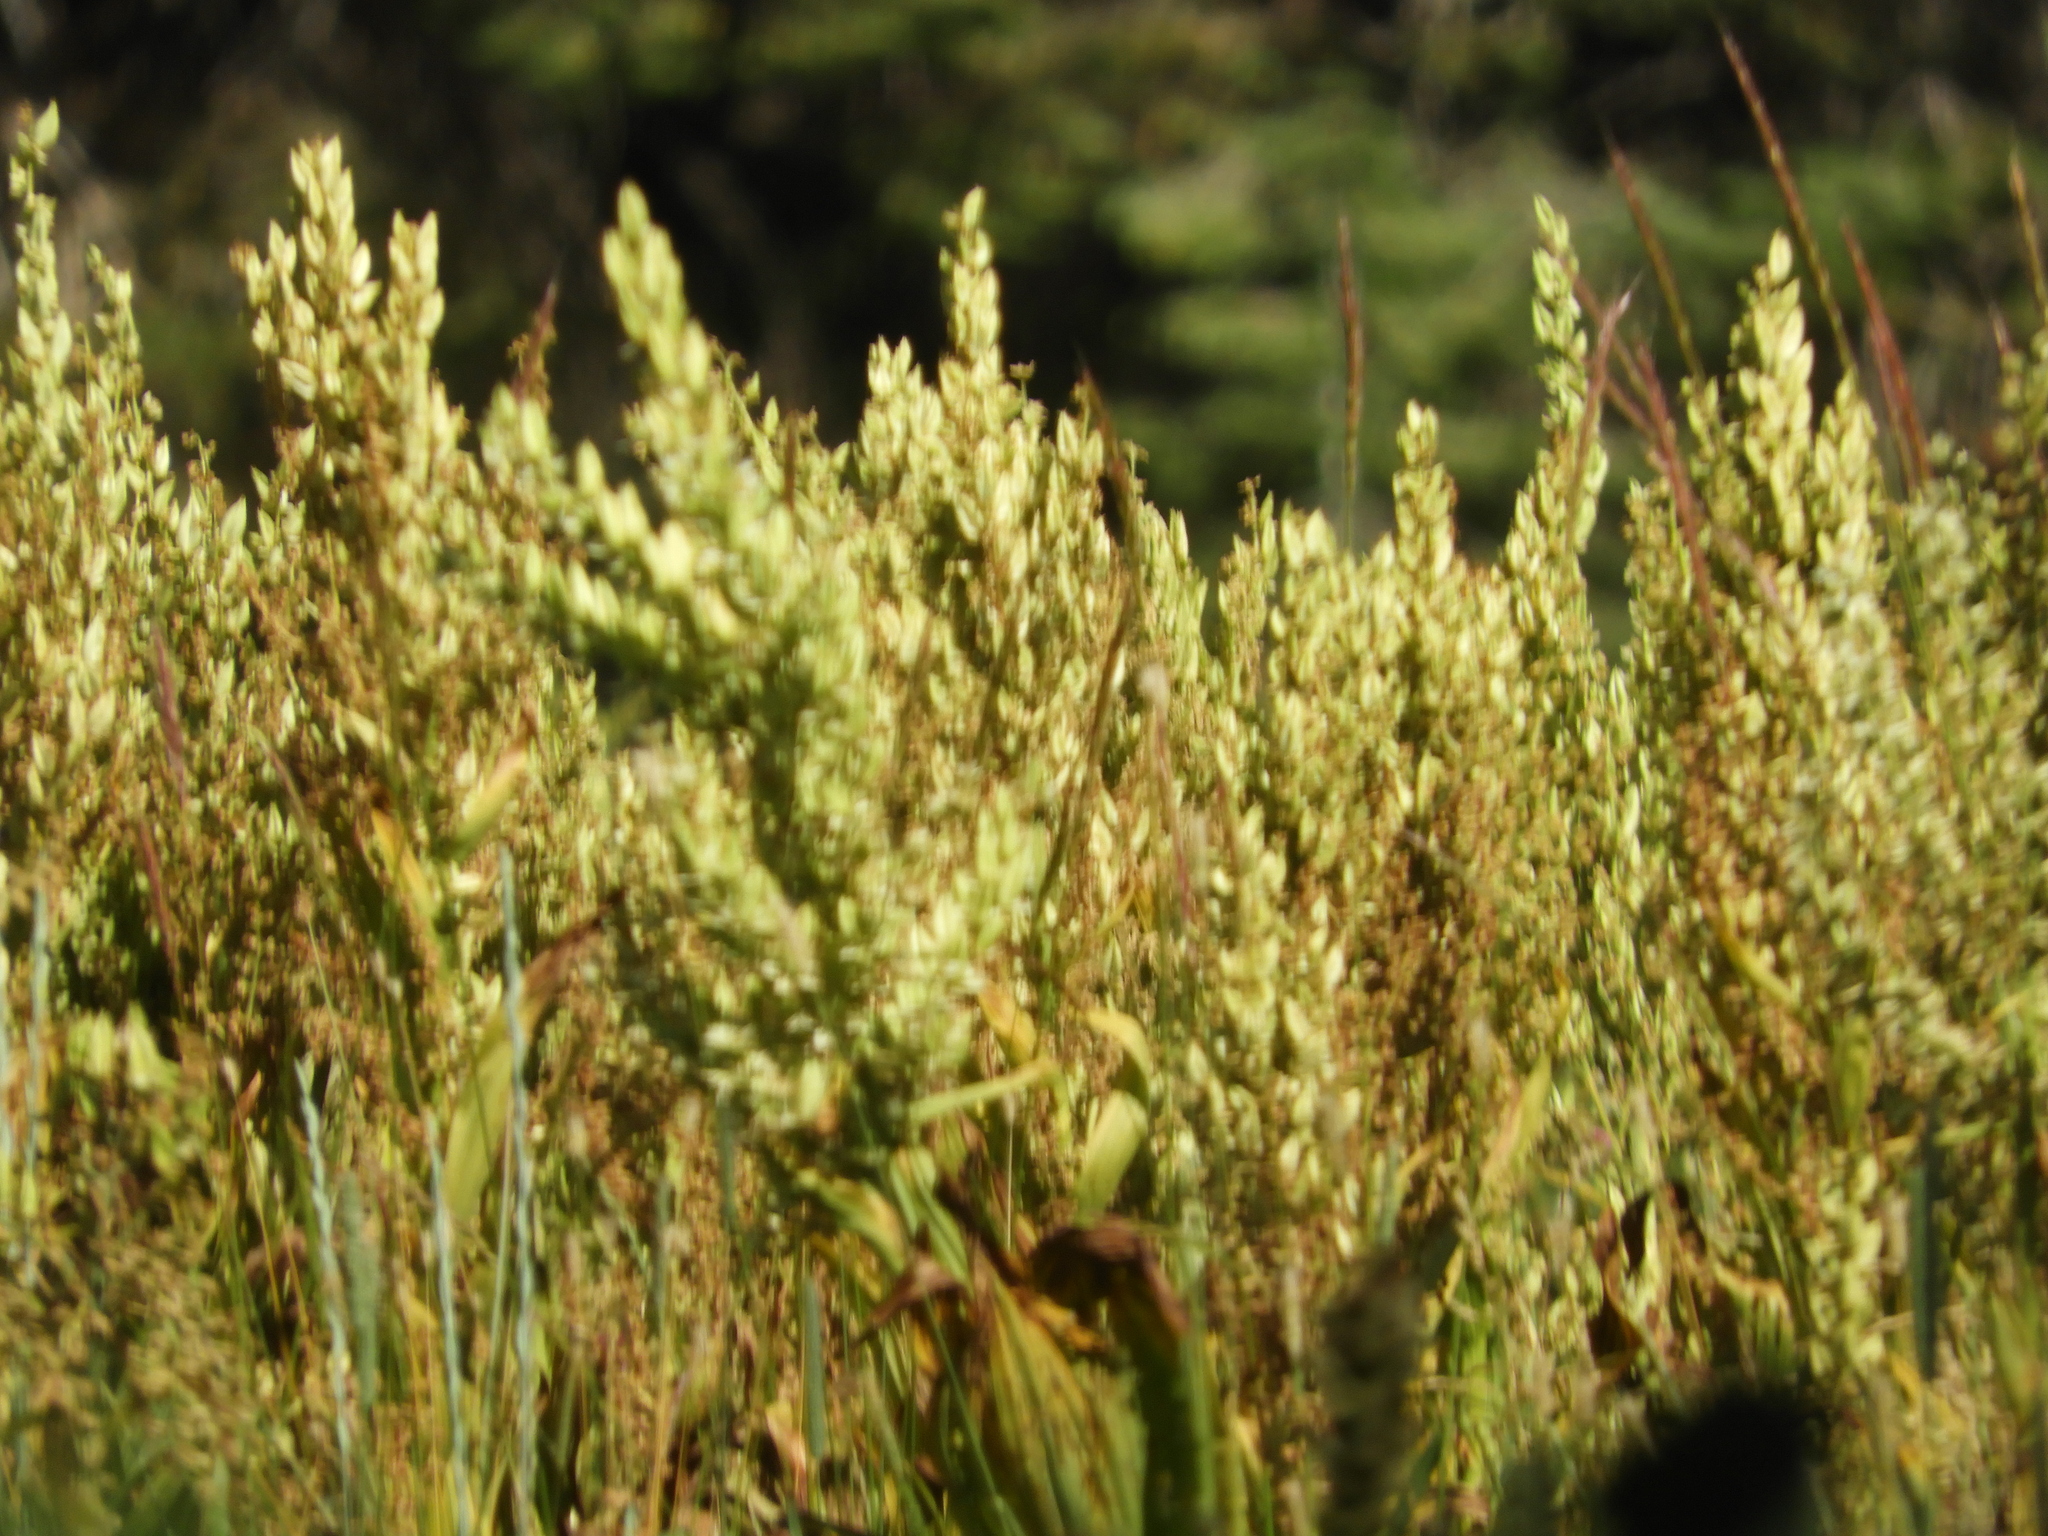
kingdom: Plantae
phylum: Tracheophyta
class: Liliopsida
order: Liliales
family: Melanthiaceae
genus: Veratrum
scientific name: Veratrum californicum
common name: California veratrum
